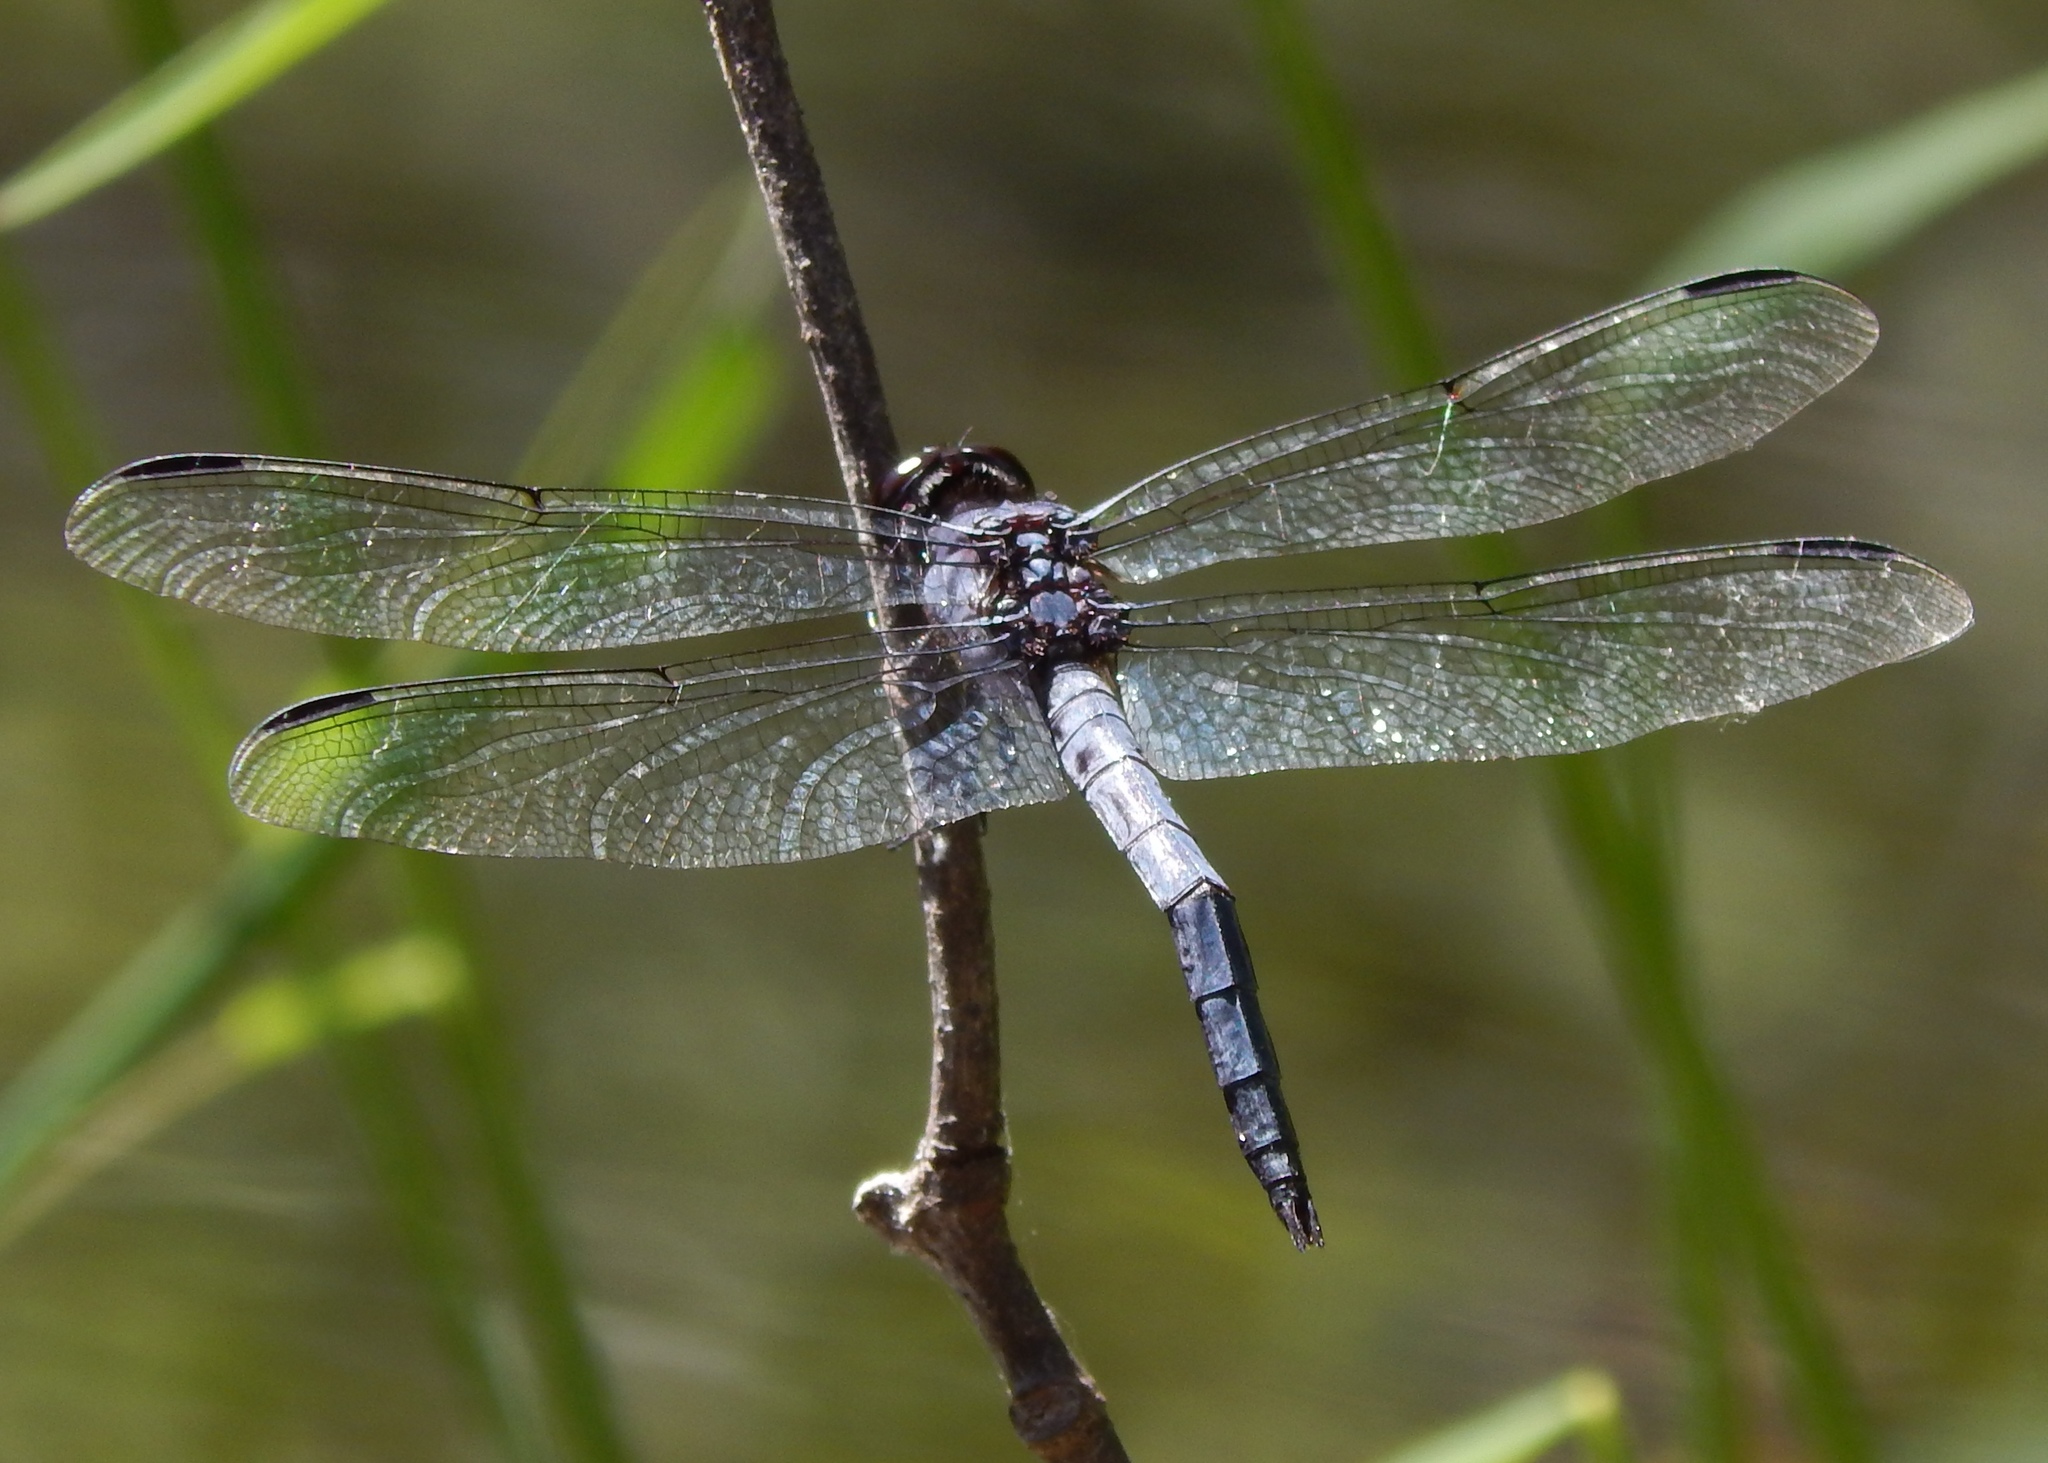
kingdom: Animalia
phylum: Arthropoda
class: Insecta
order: Odonata
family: Libellulidae
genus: Libellula
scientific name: Libellula incesta
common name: Slaty skimmer
